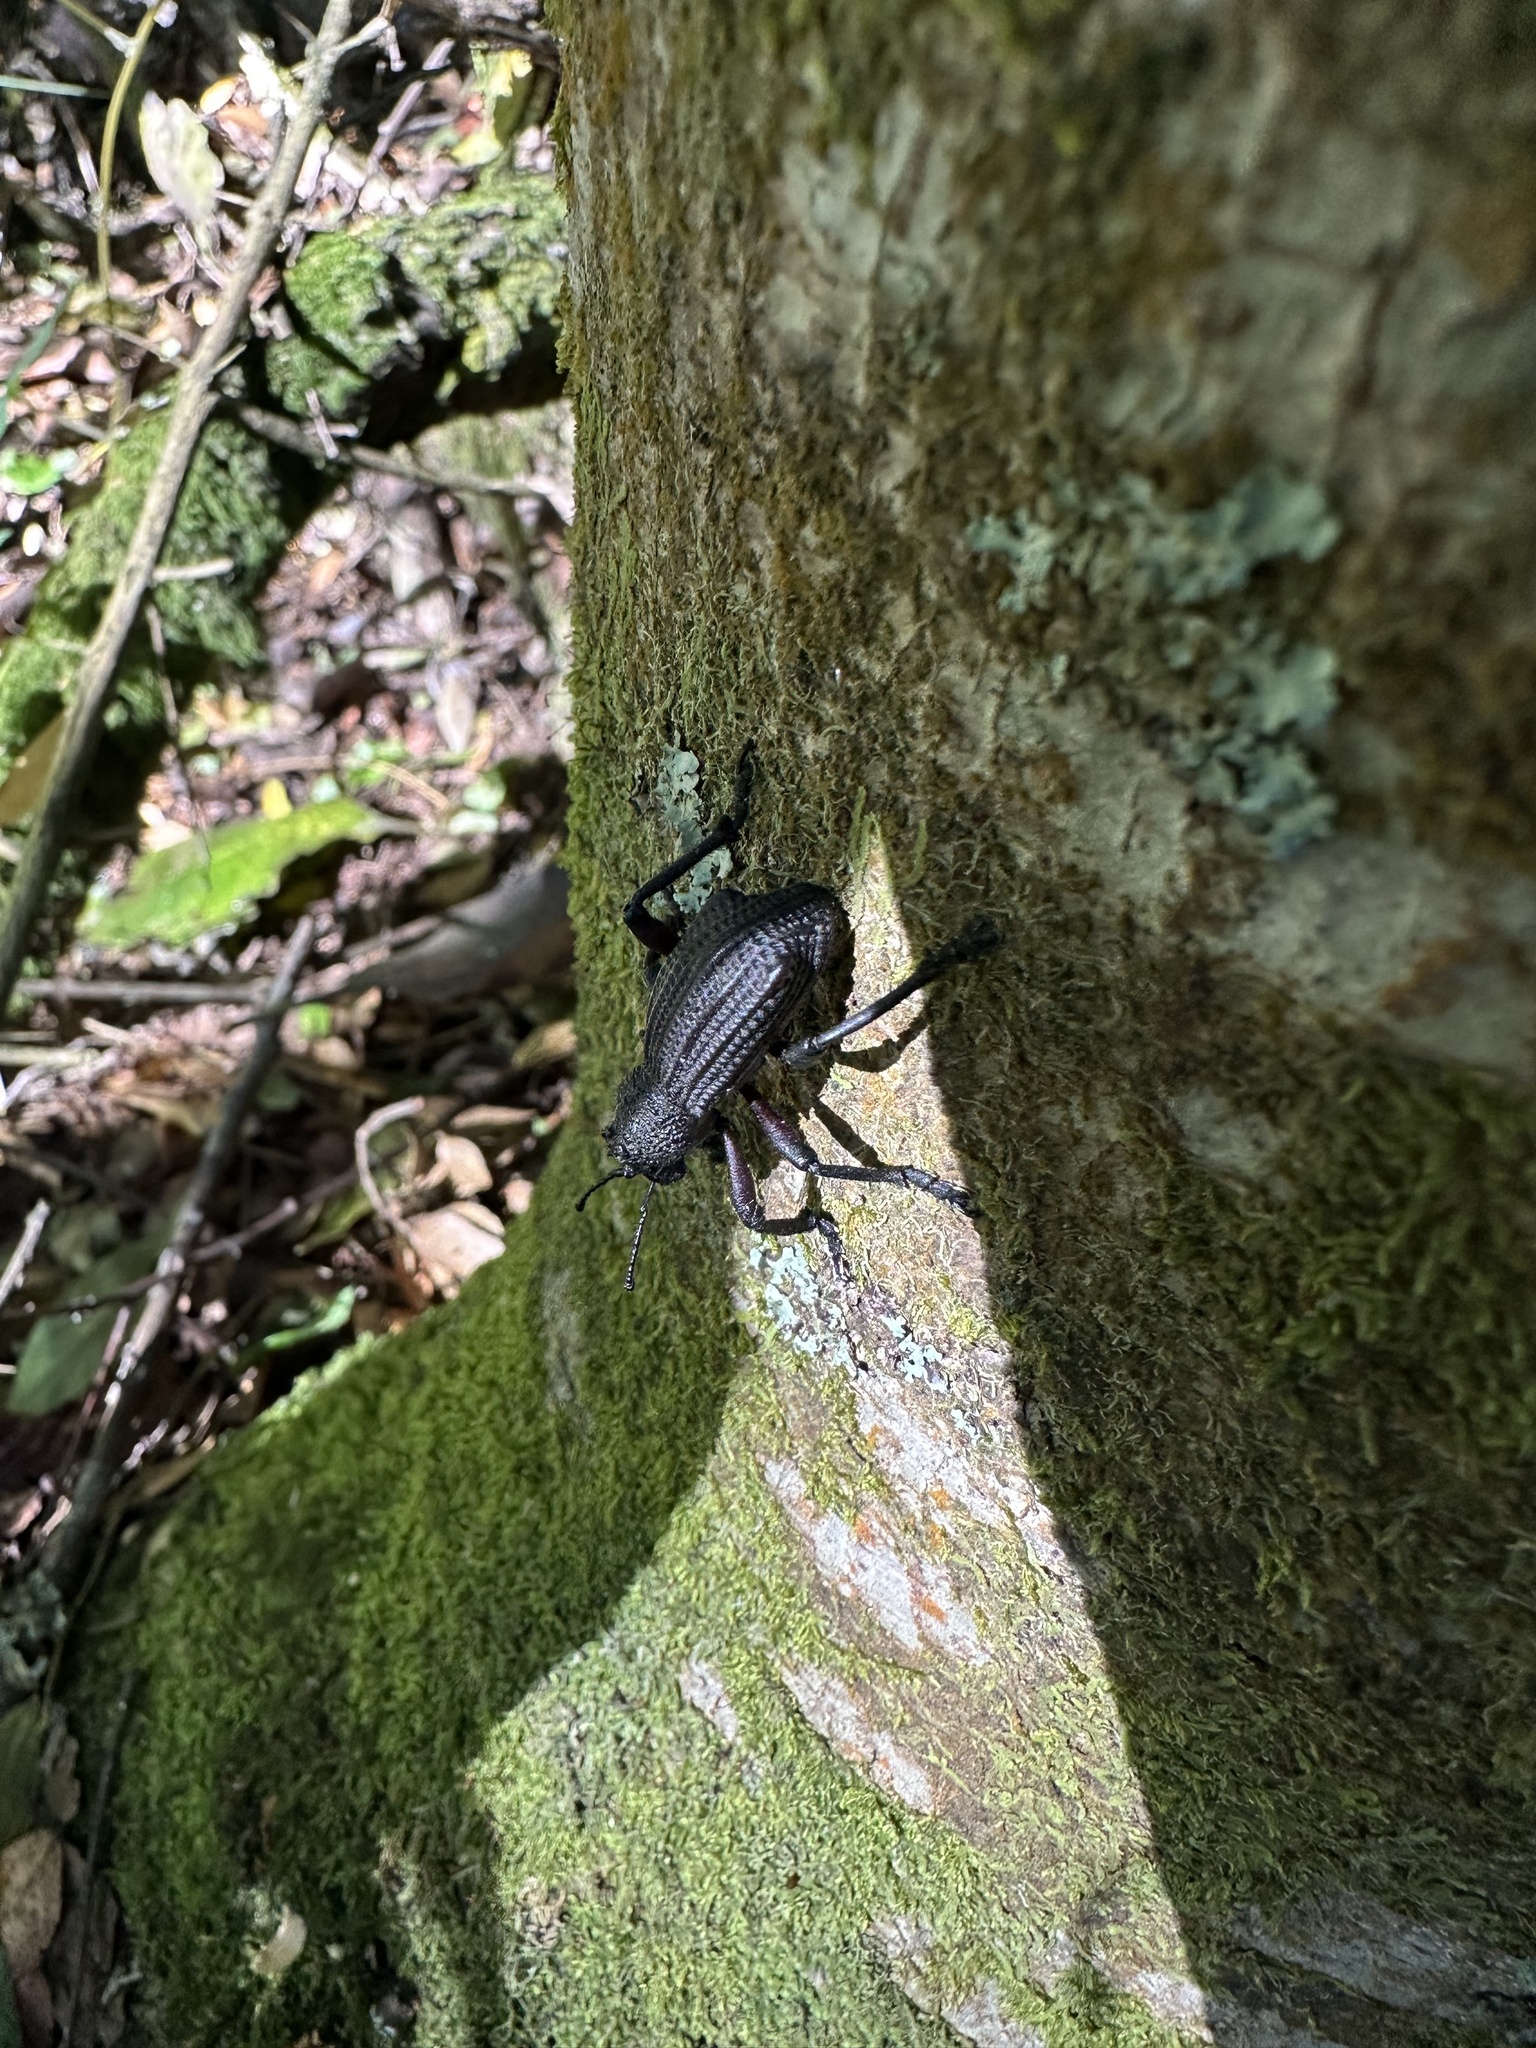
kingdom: Animalia
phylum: Arthropoda
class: Insecta
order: Coleoptera
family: Curculionidae
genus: Aegorhinus
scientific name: Aegorhinus
